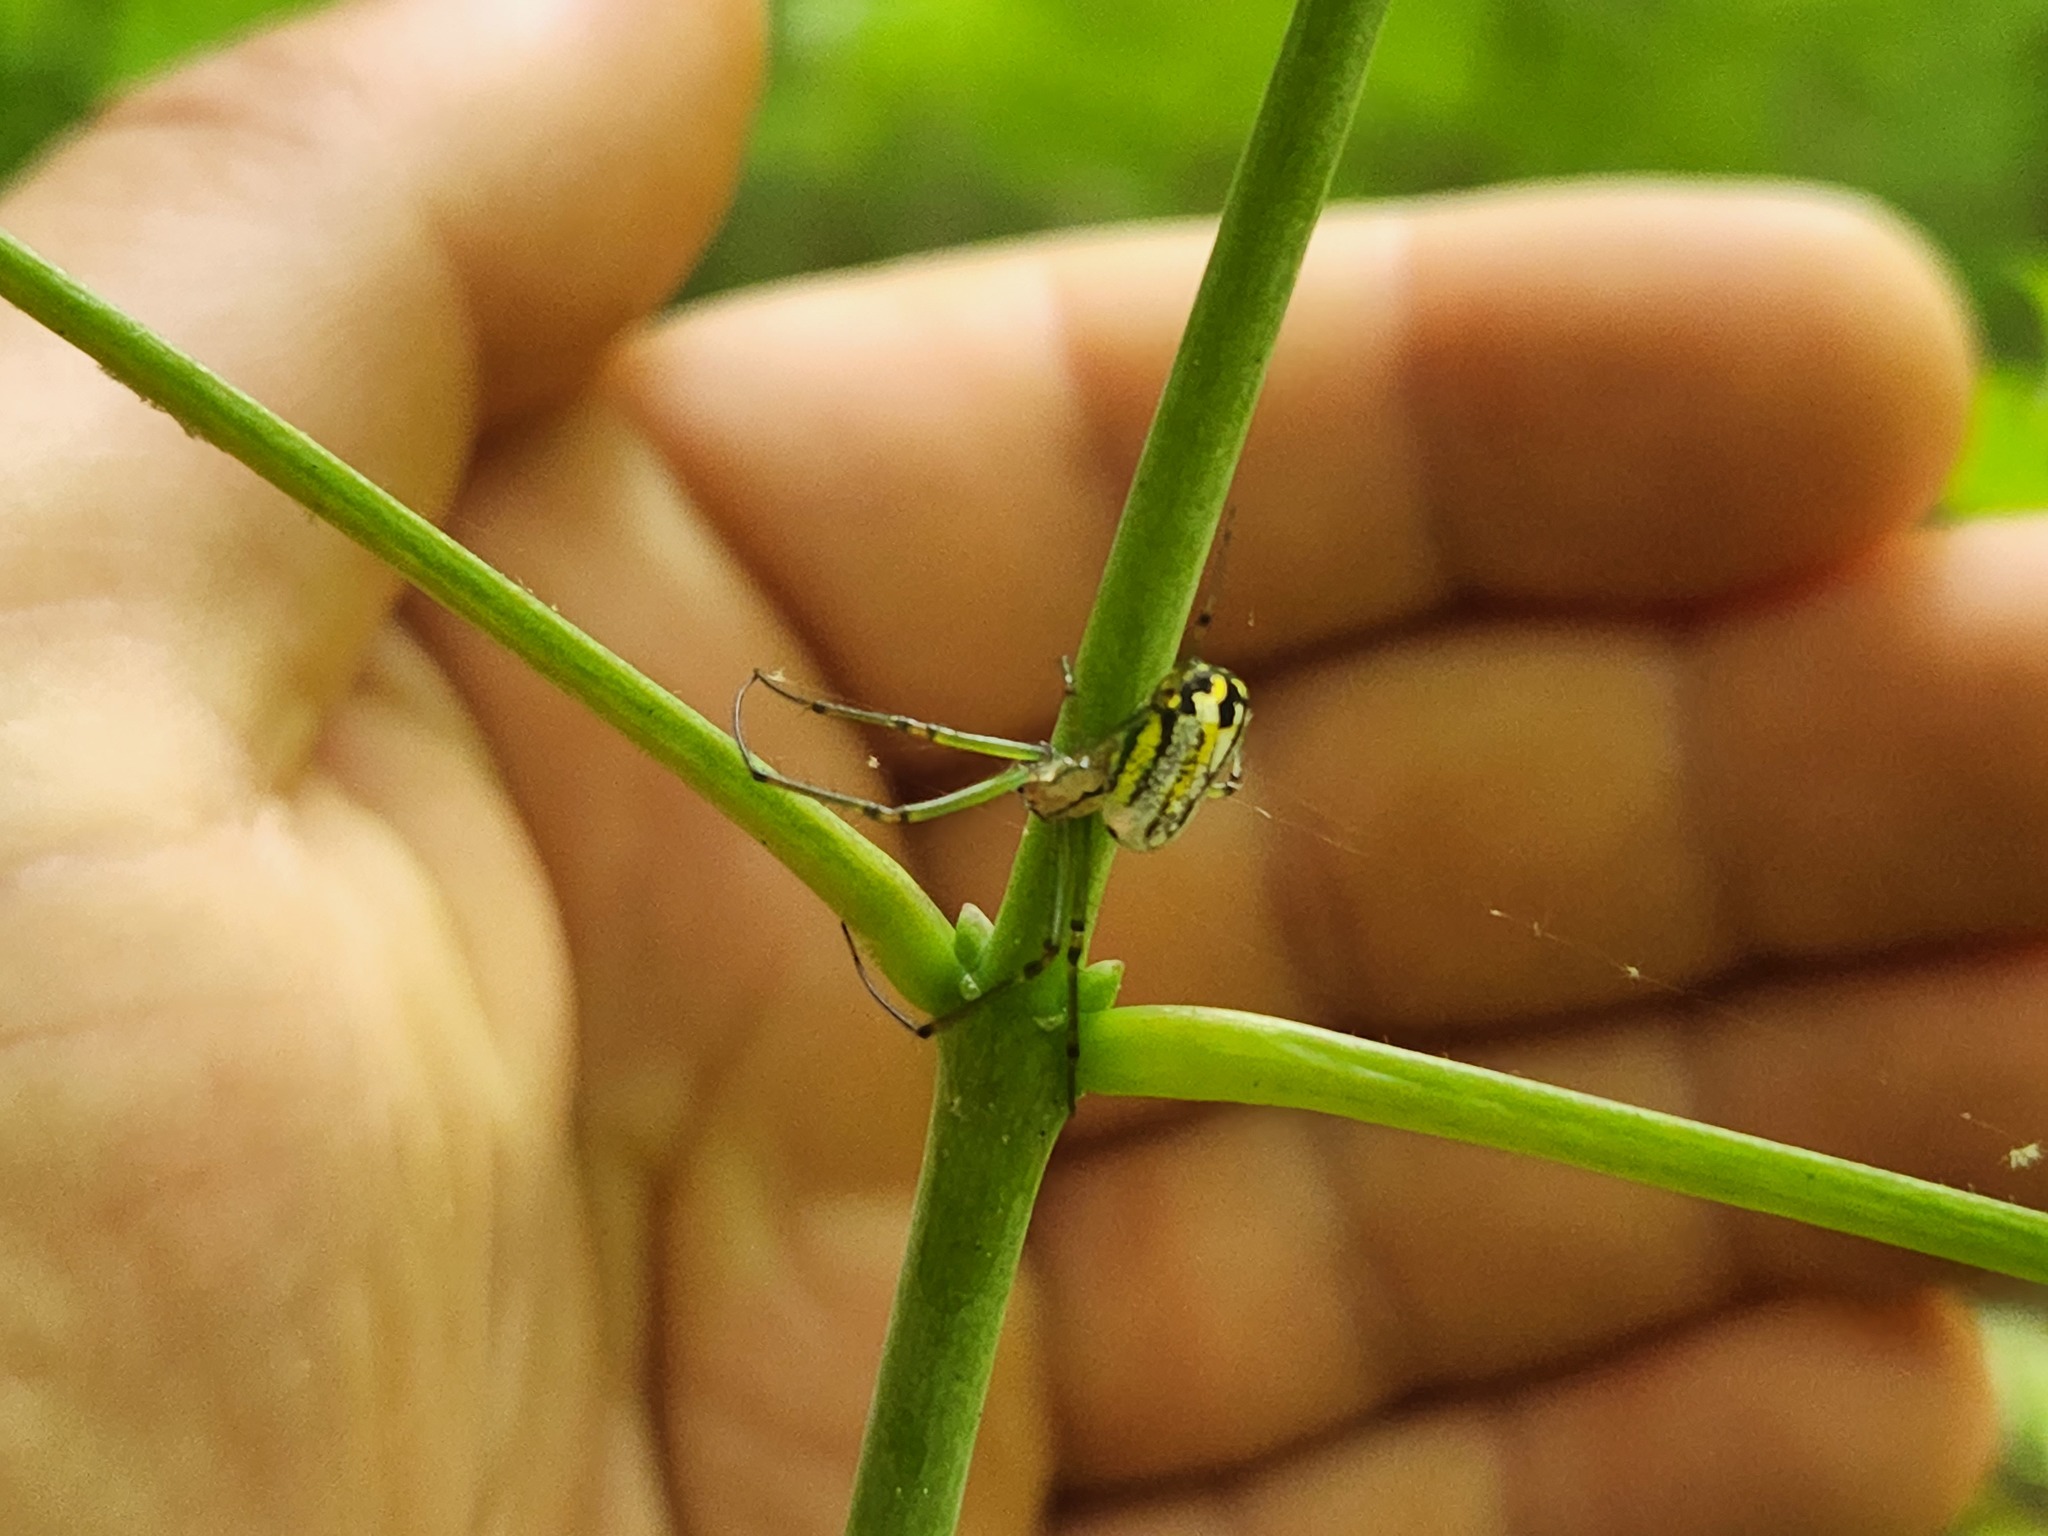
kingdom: Animalia
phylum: Arthropoda
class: Arachnida
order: Araneae
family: Tetragnathidae
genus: Leucauge
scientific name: Leucauge venusta
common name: Longjawed orb weavers
